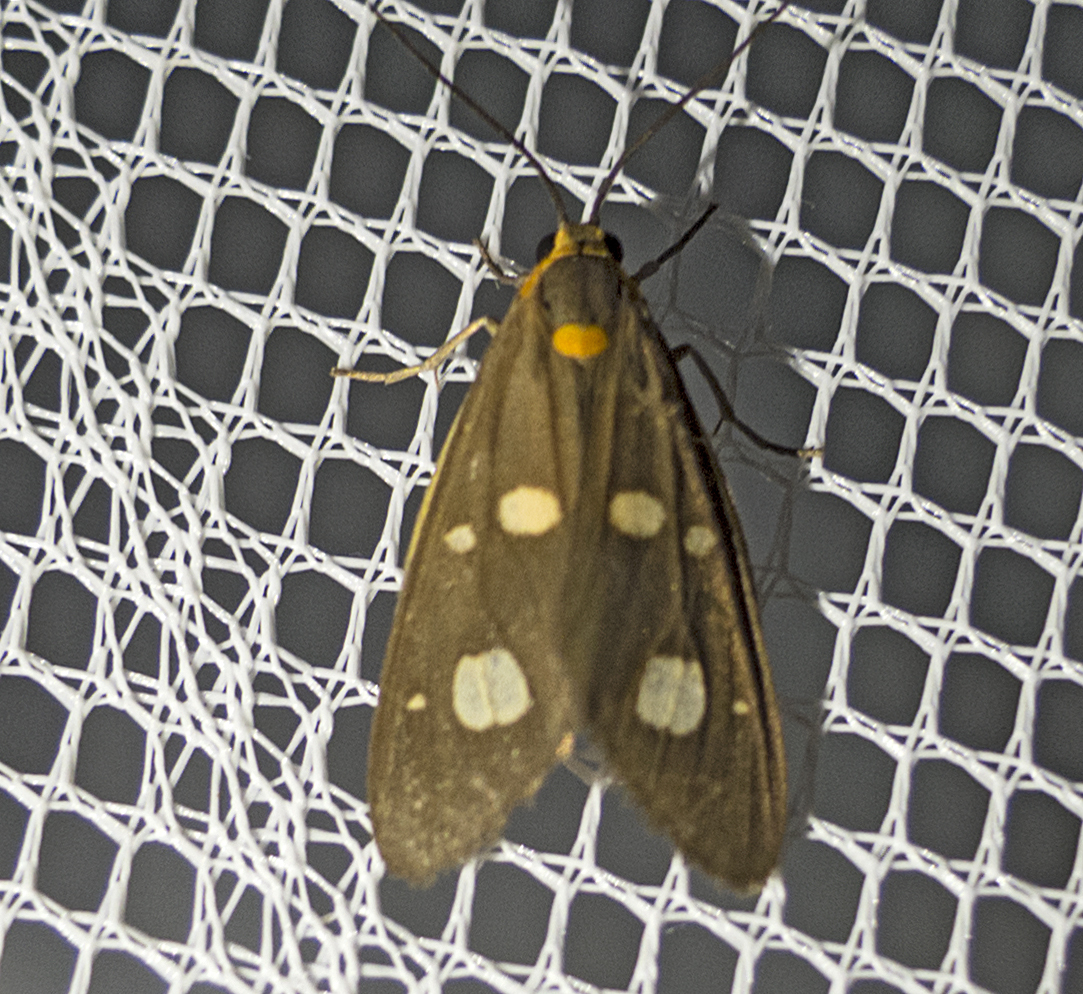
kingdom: Animalia
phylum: Arthropoda
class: Insecta
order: Lepidoptera
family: Erebidae
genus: Dysauxes
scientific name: Dysauxes punctata
